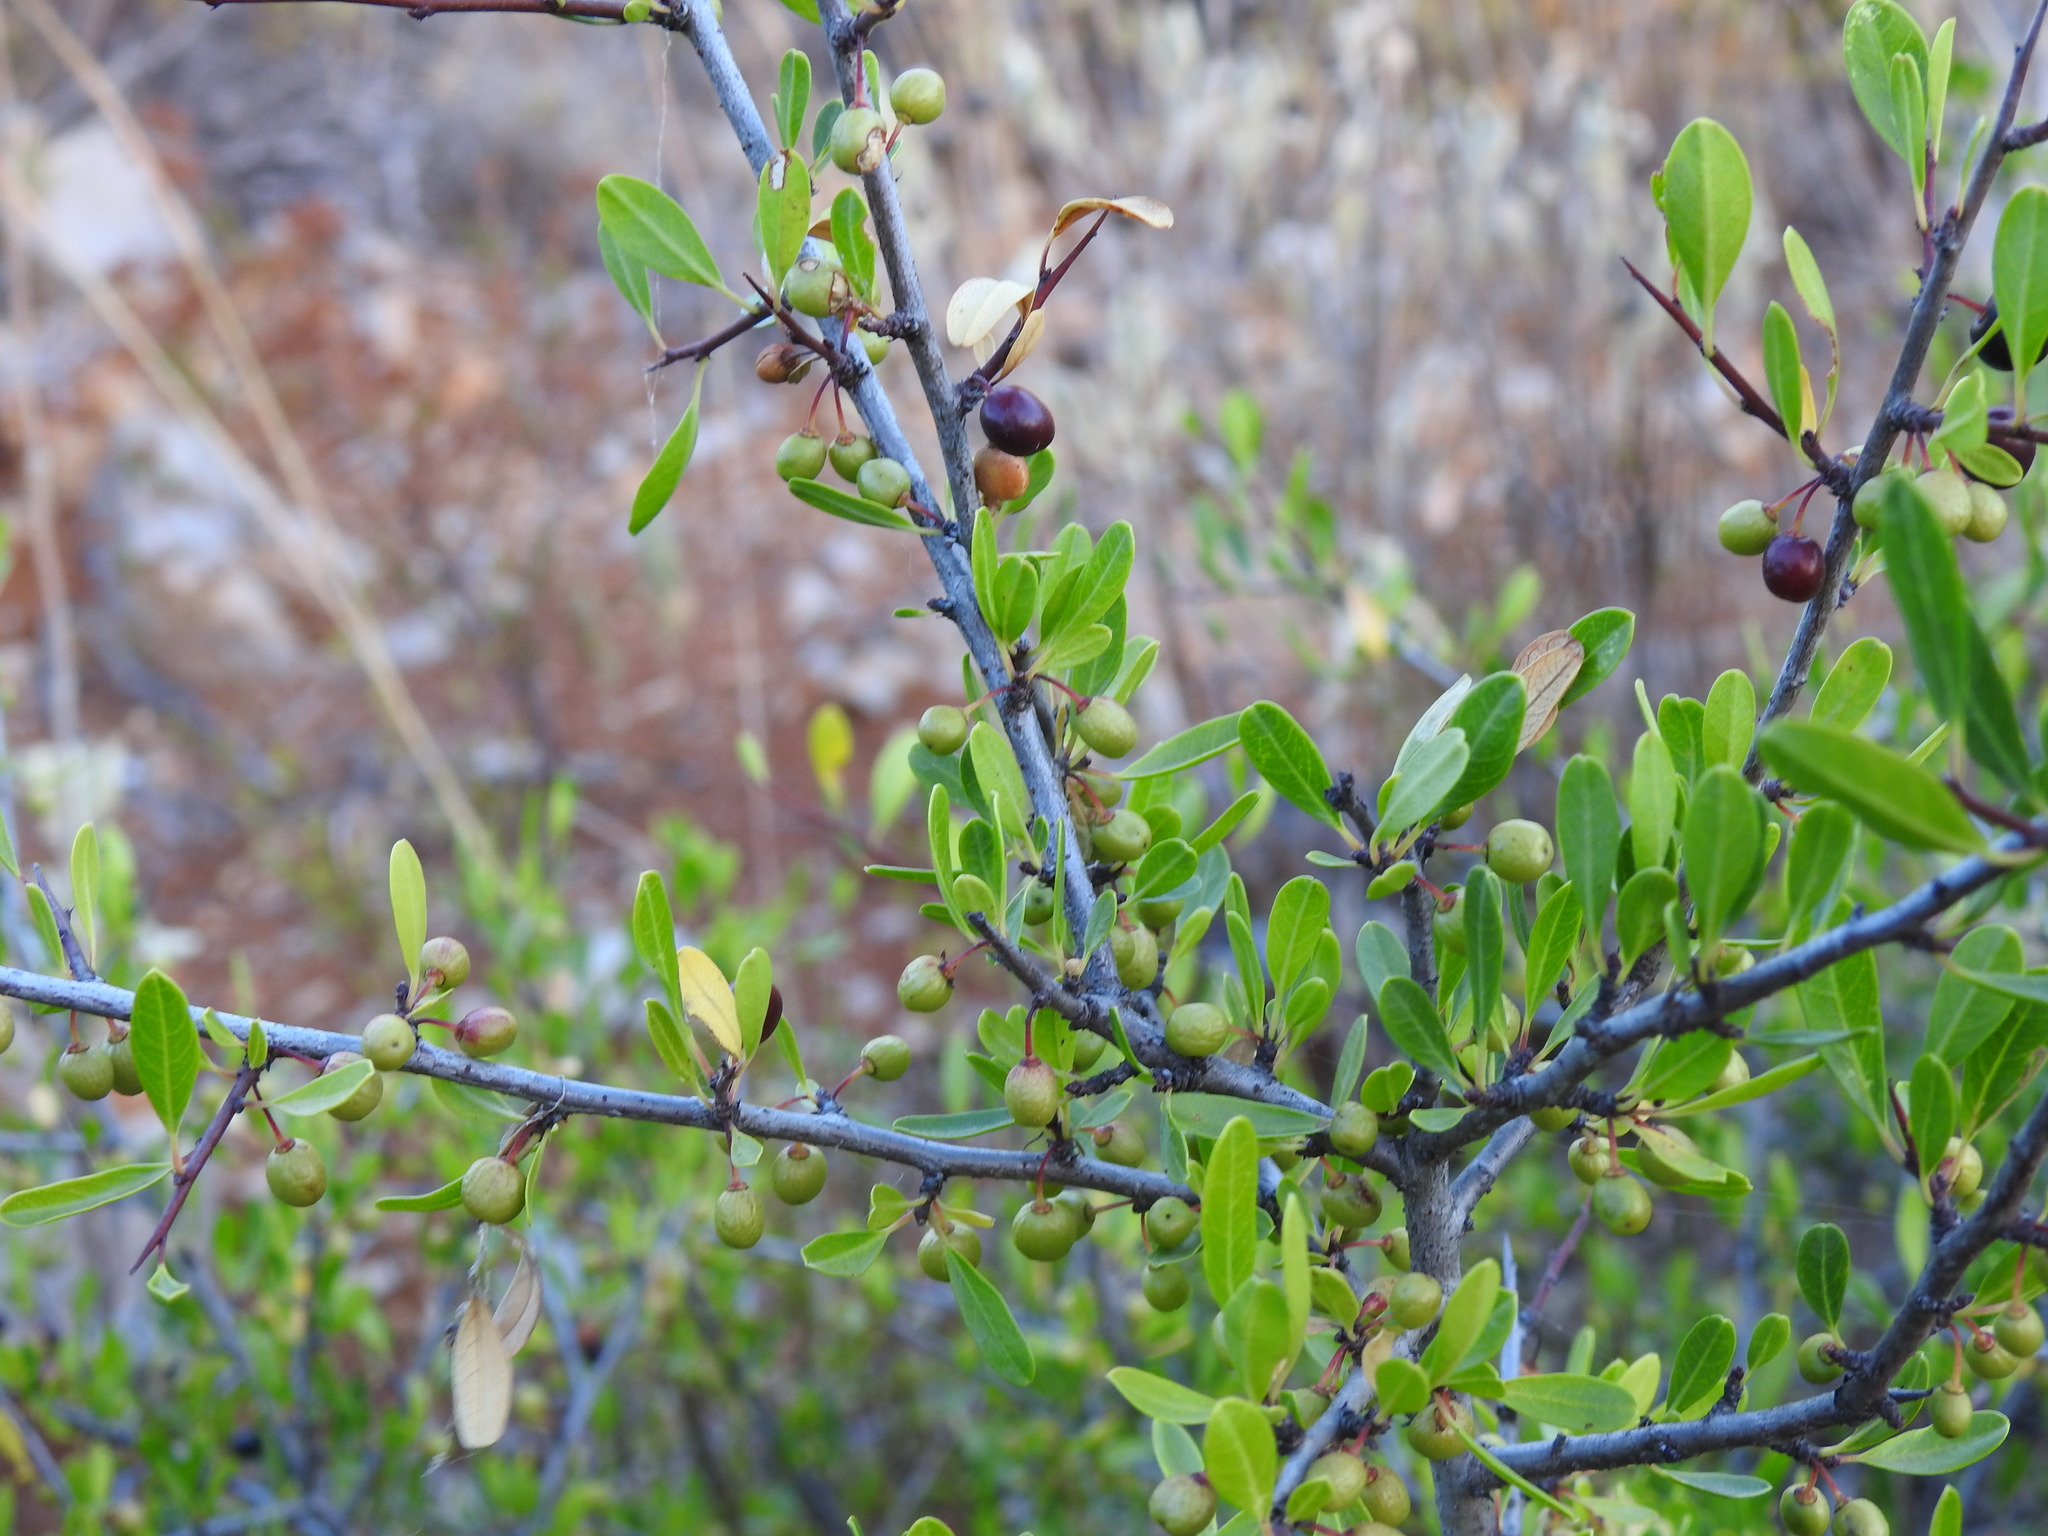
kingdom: Plantae
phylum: Tracheophyta
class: Magnoliopsida
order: Rosales
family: Rhamnaceae
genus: Rhamnus
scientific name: Rhamnus oleoides
